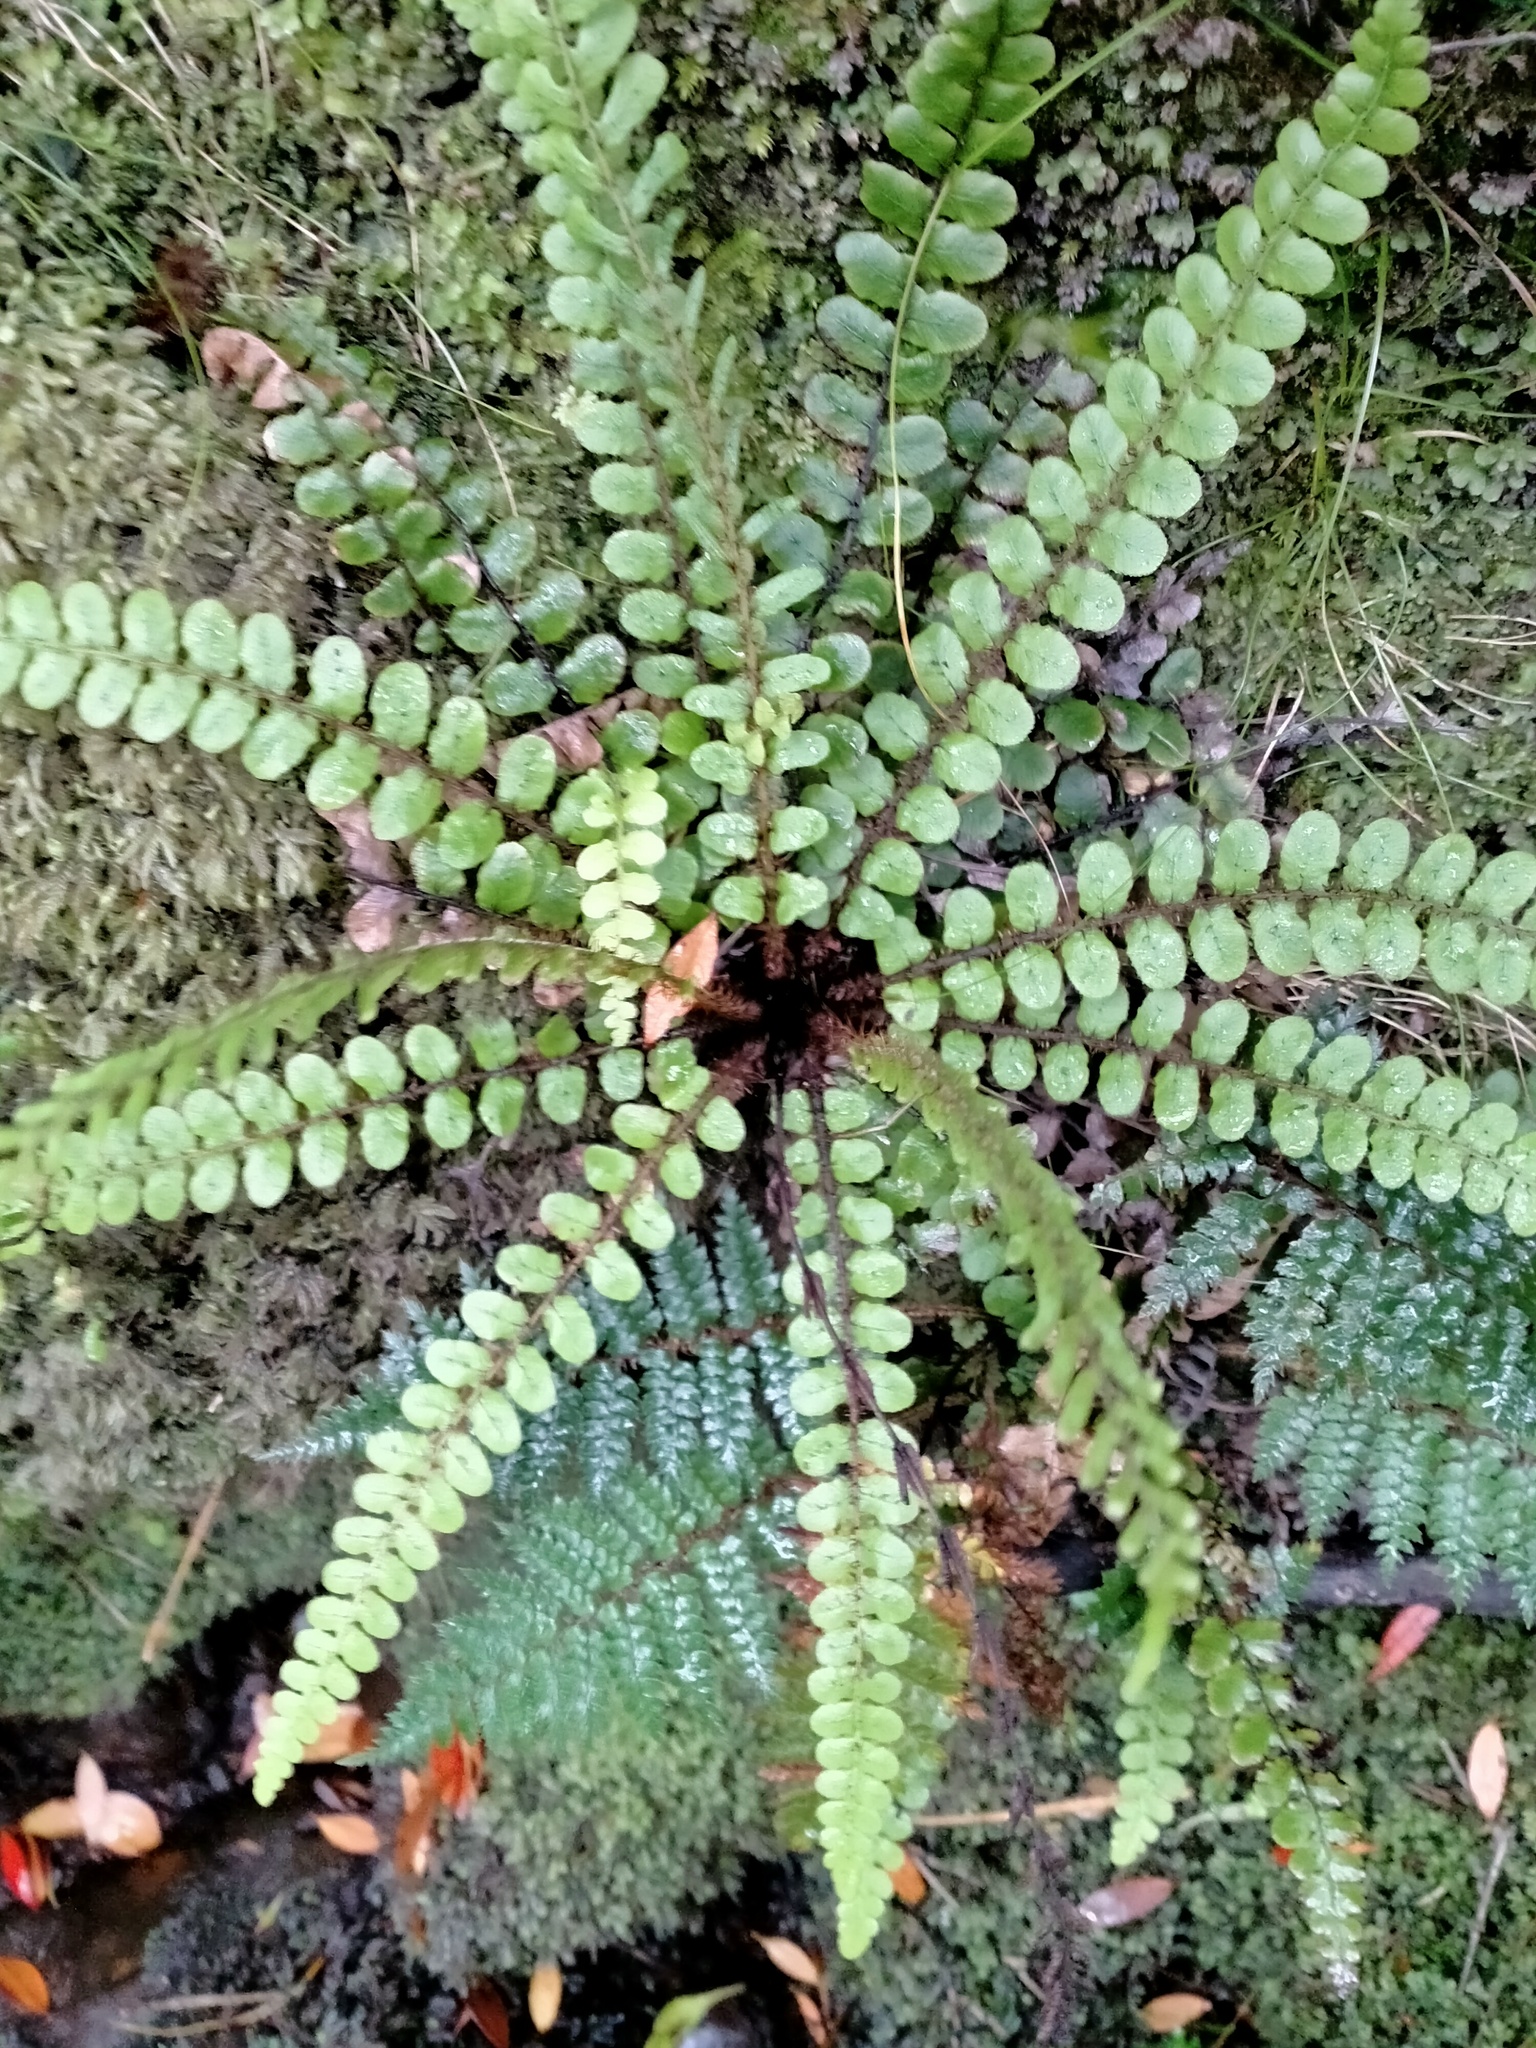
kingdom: Plantae
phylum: Tracheophyta
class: Polypodiopsida
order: Polypodiales
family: Blechnaceae
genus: Cranfillia
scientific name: Cranfillia fluviatilis
